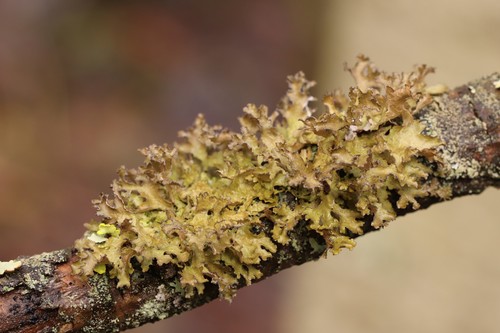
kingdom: Fungi
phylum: Ascomycota
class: Lecanoromycetes
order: Lecanorales
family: Parmeliaceae
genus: Tuckermanopsis
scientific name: Tuckermanopsis
